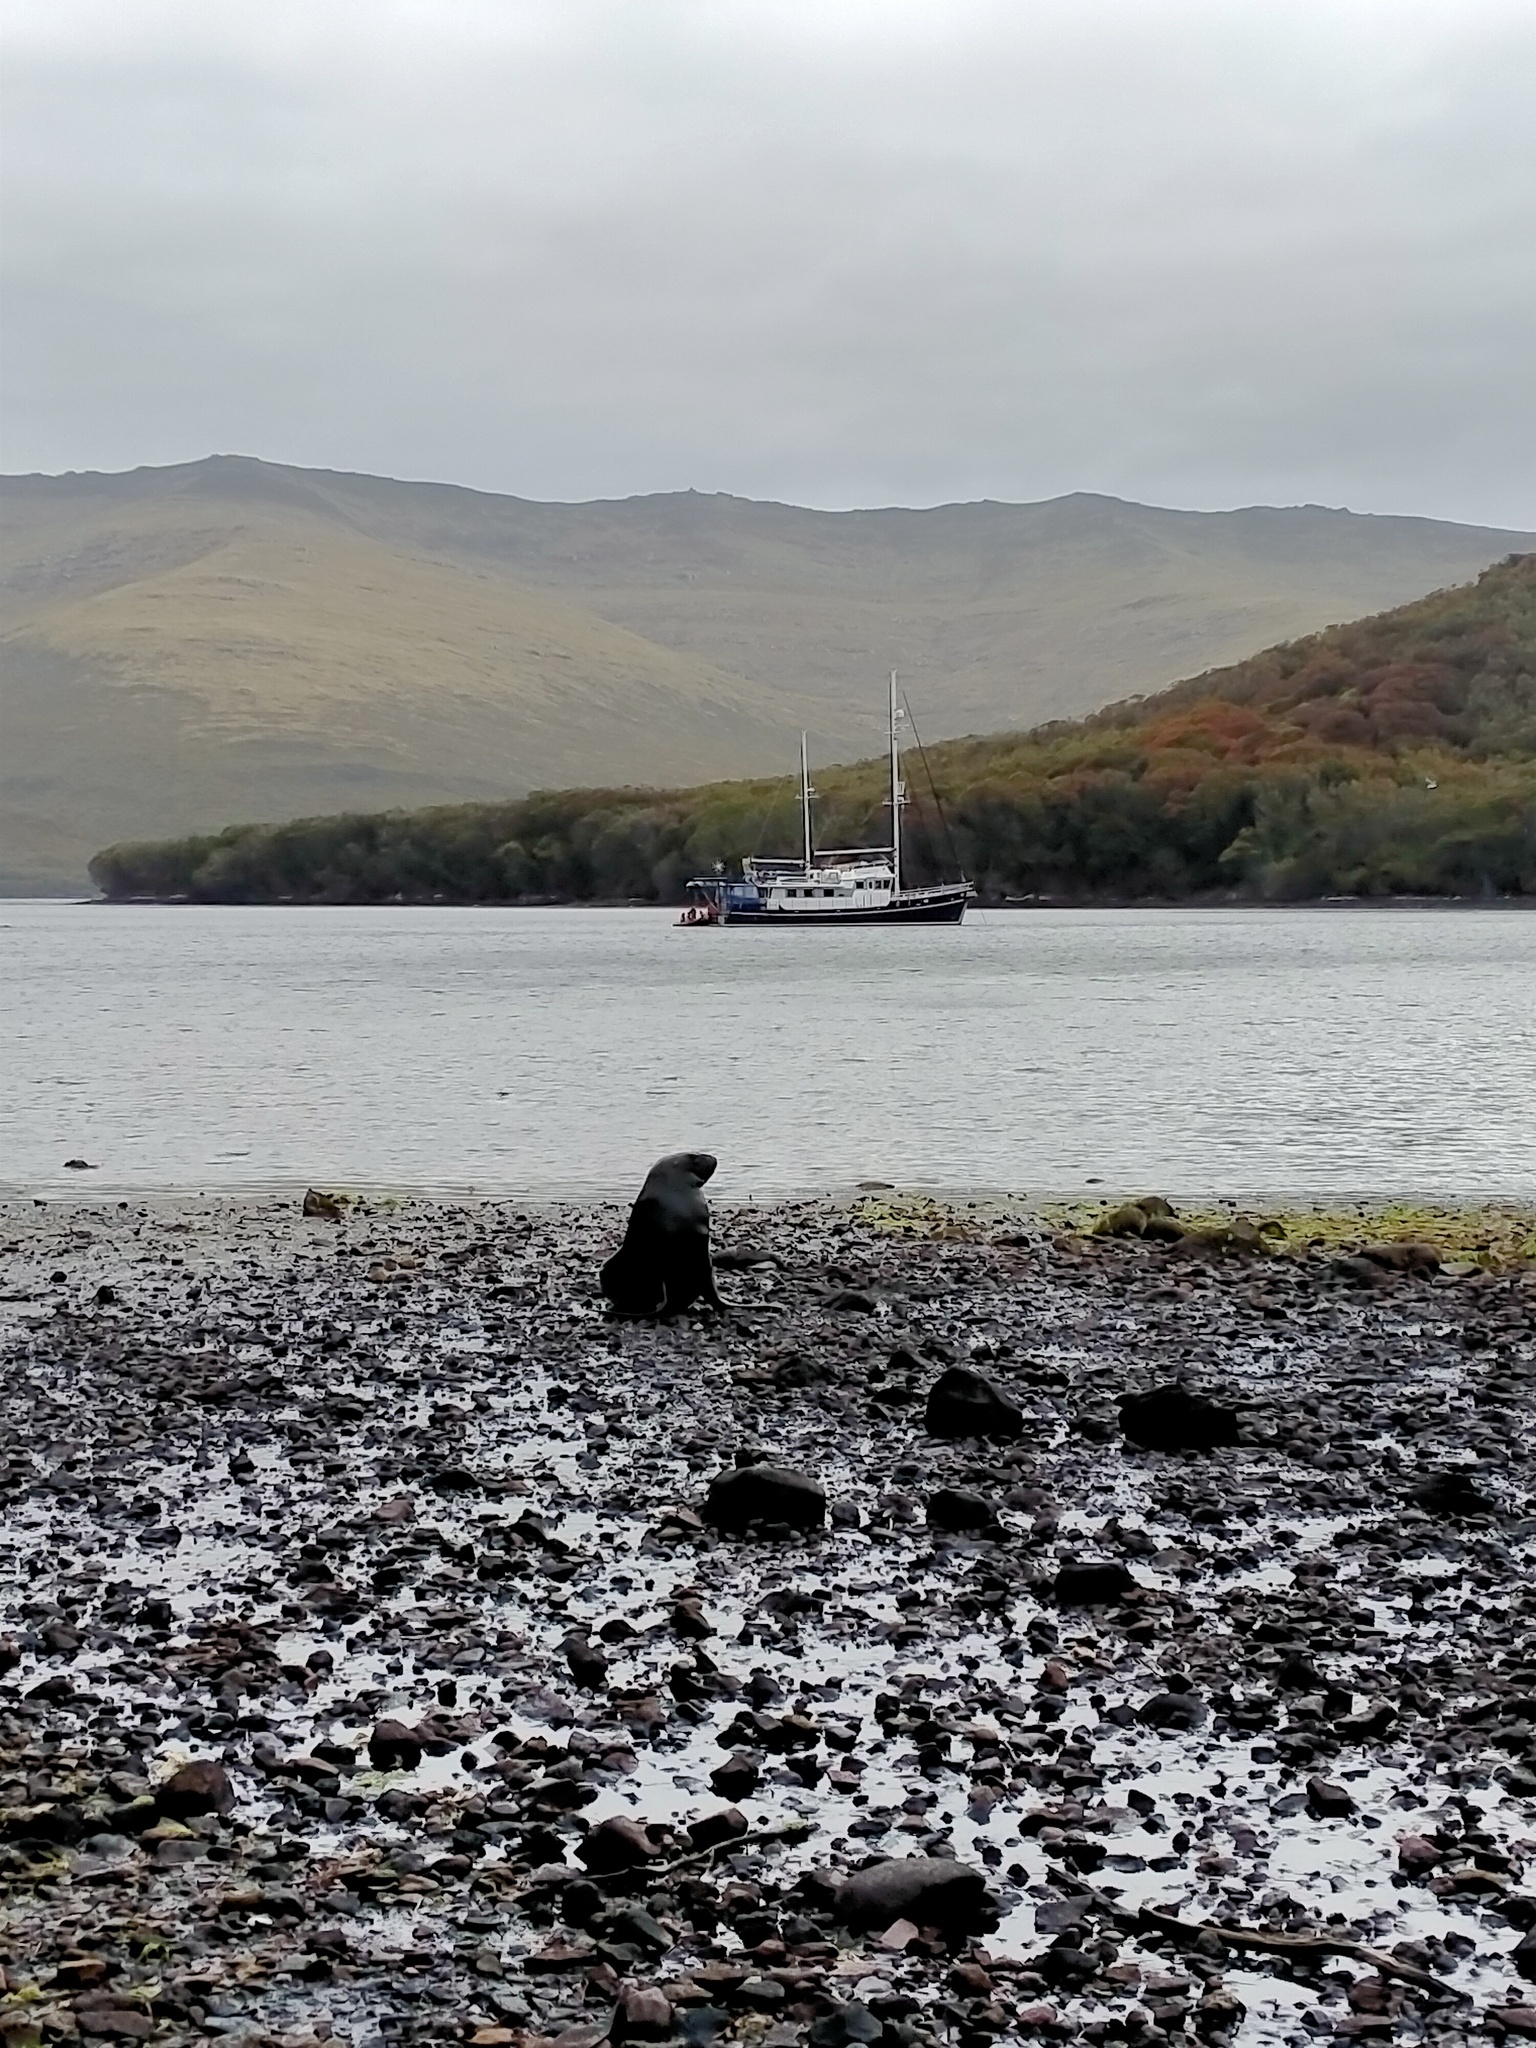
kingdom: Animalia
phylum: Chordata
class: Mammalia
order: Carnivora
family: Otariidae
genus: Phocarctos
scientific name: Phocarctos hookeri
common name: New zealand sea lion
